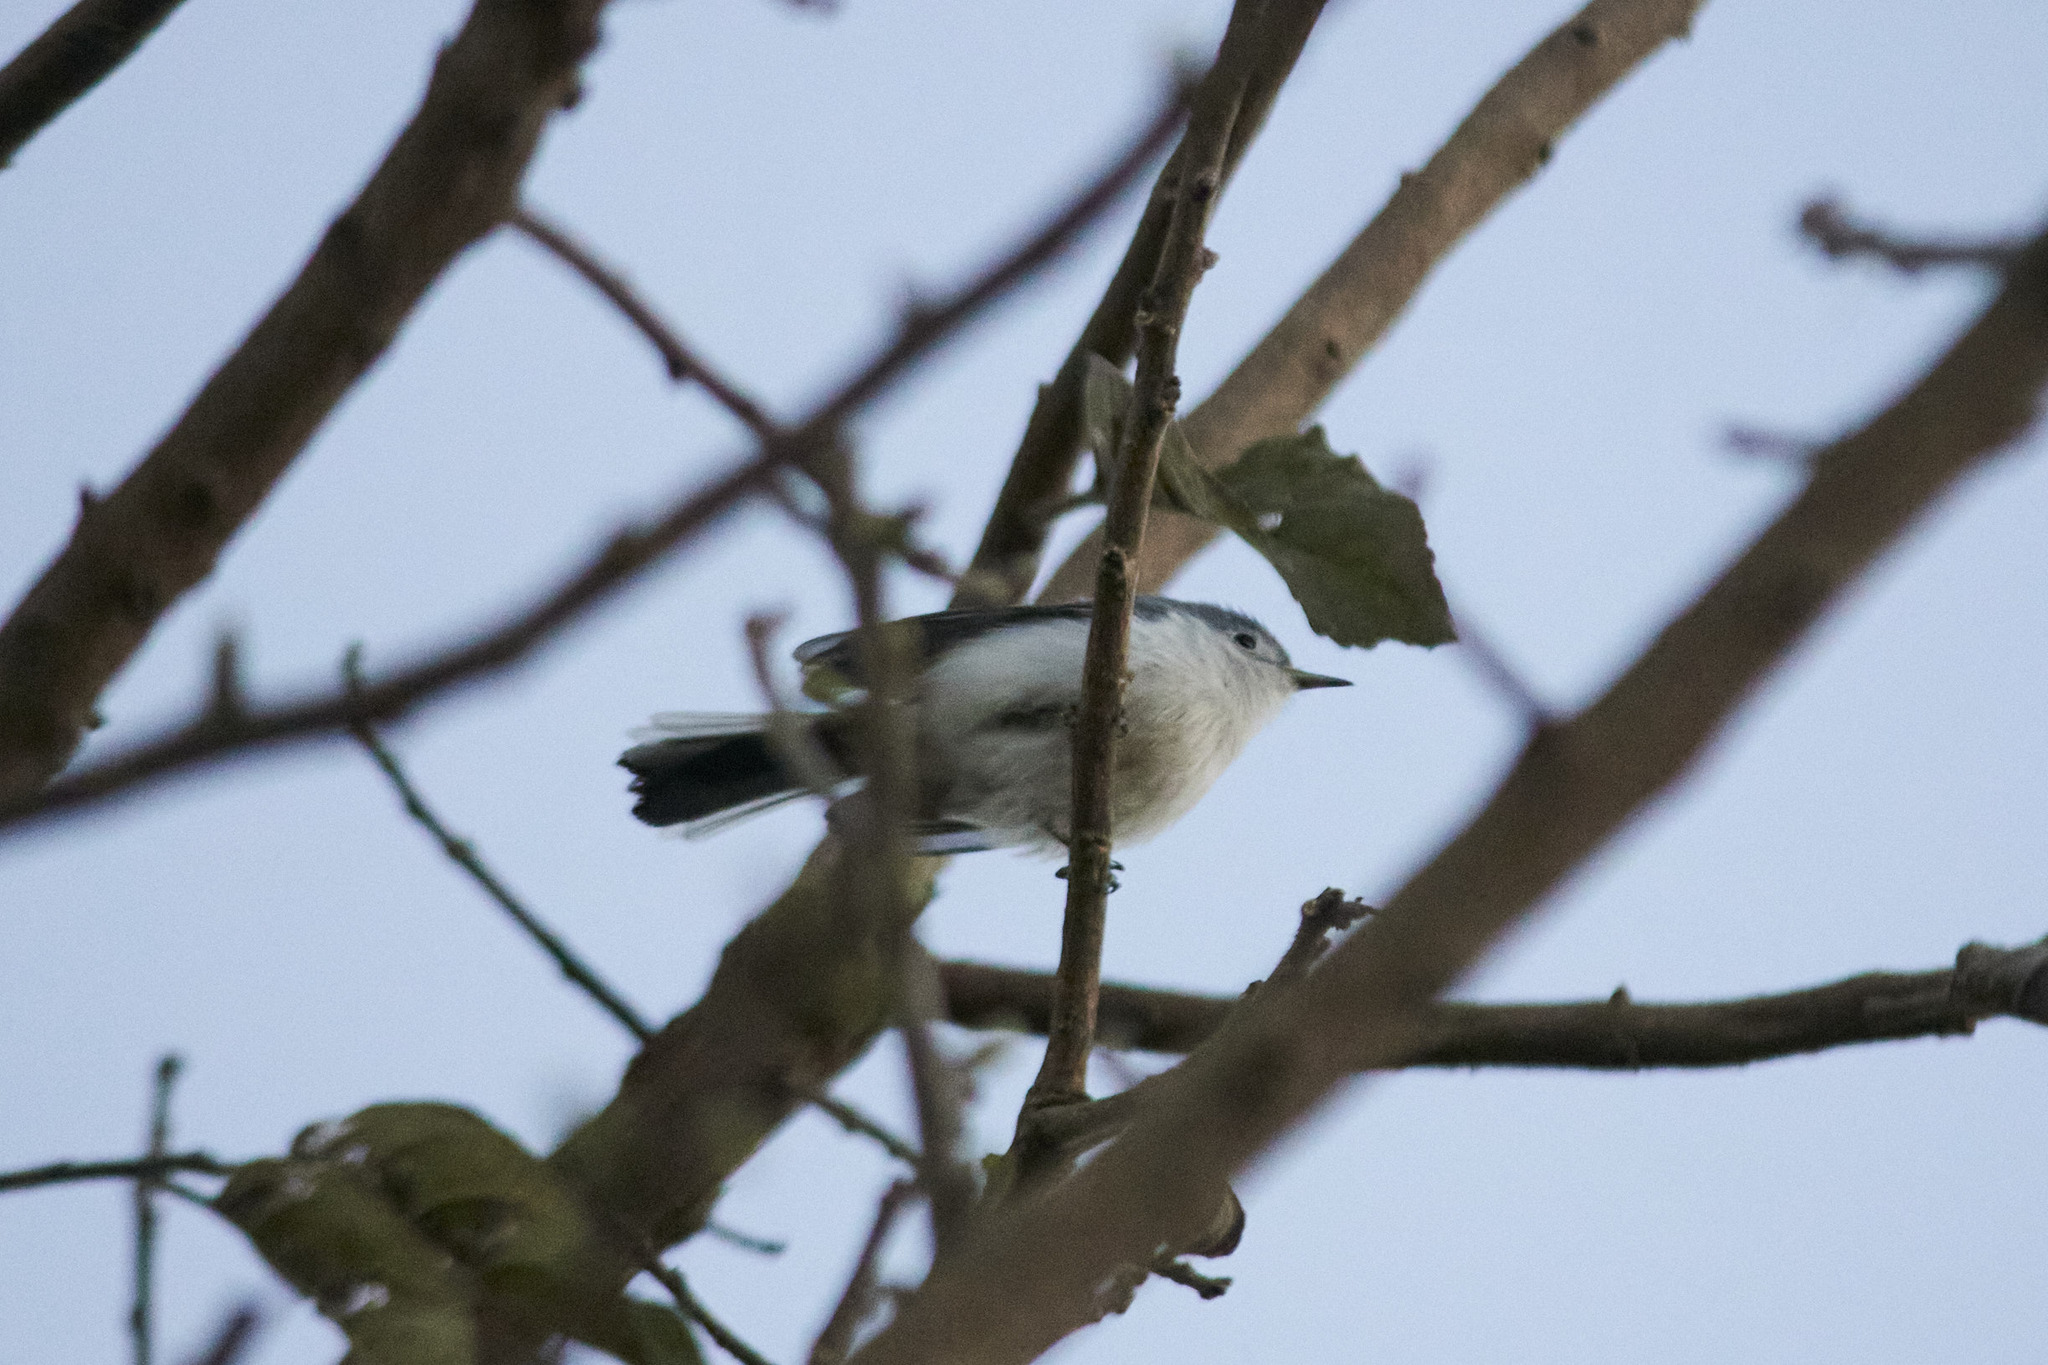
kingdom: Animalia
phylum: Chordata
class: Aves
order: Passeriformes
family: Polioptilidae
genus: Polioptila
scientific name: Polioptila caerulea
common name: Blue-gray gnatcatcher
